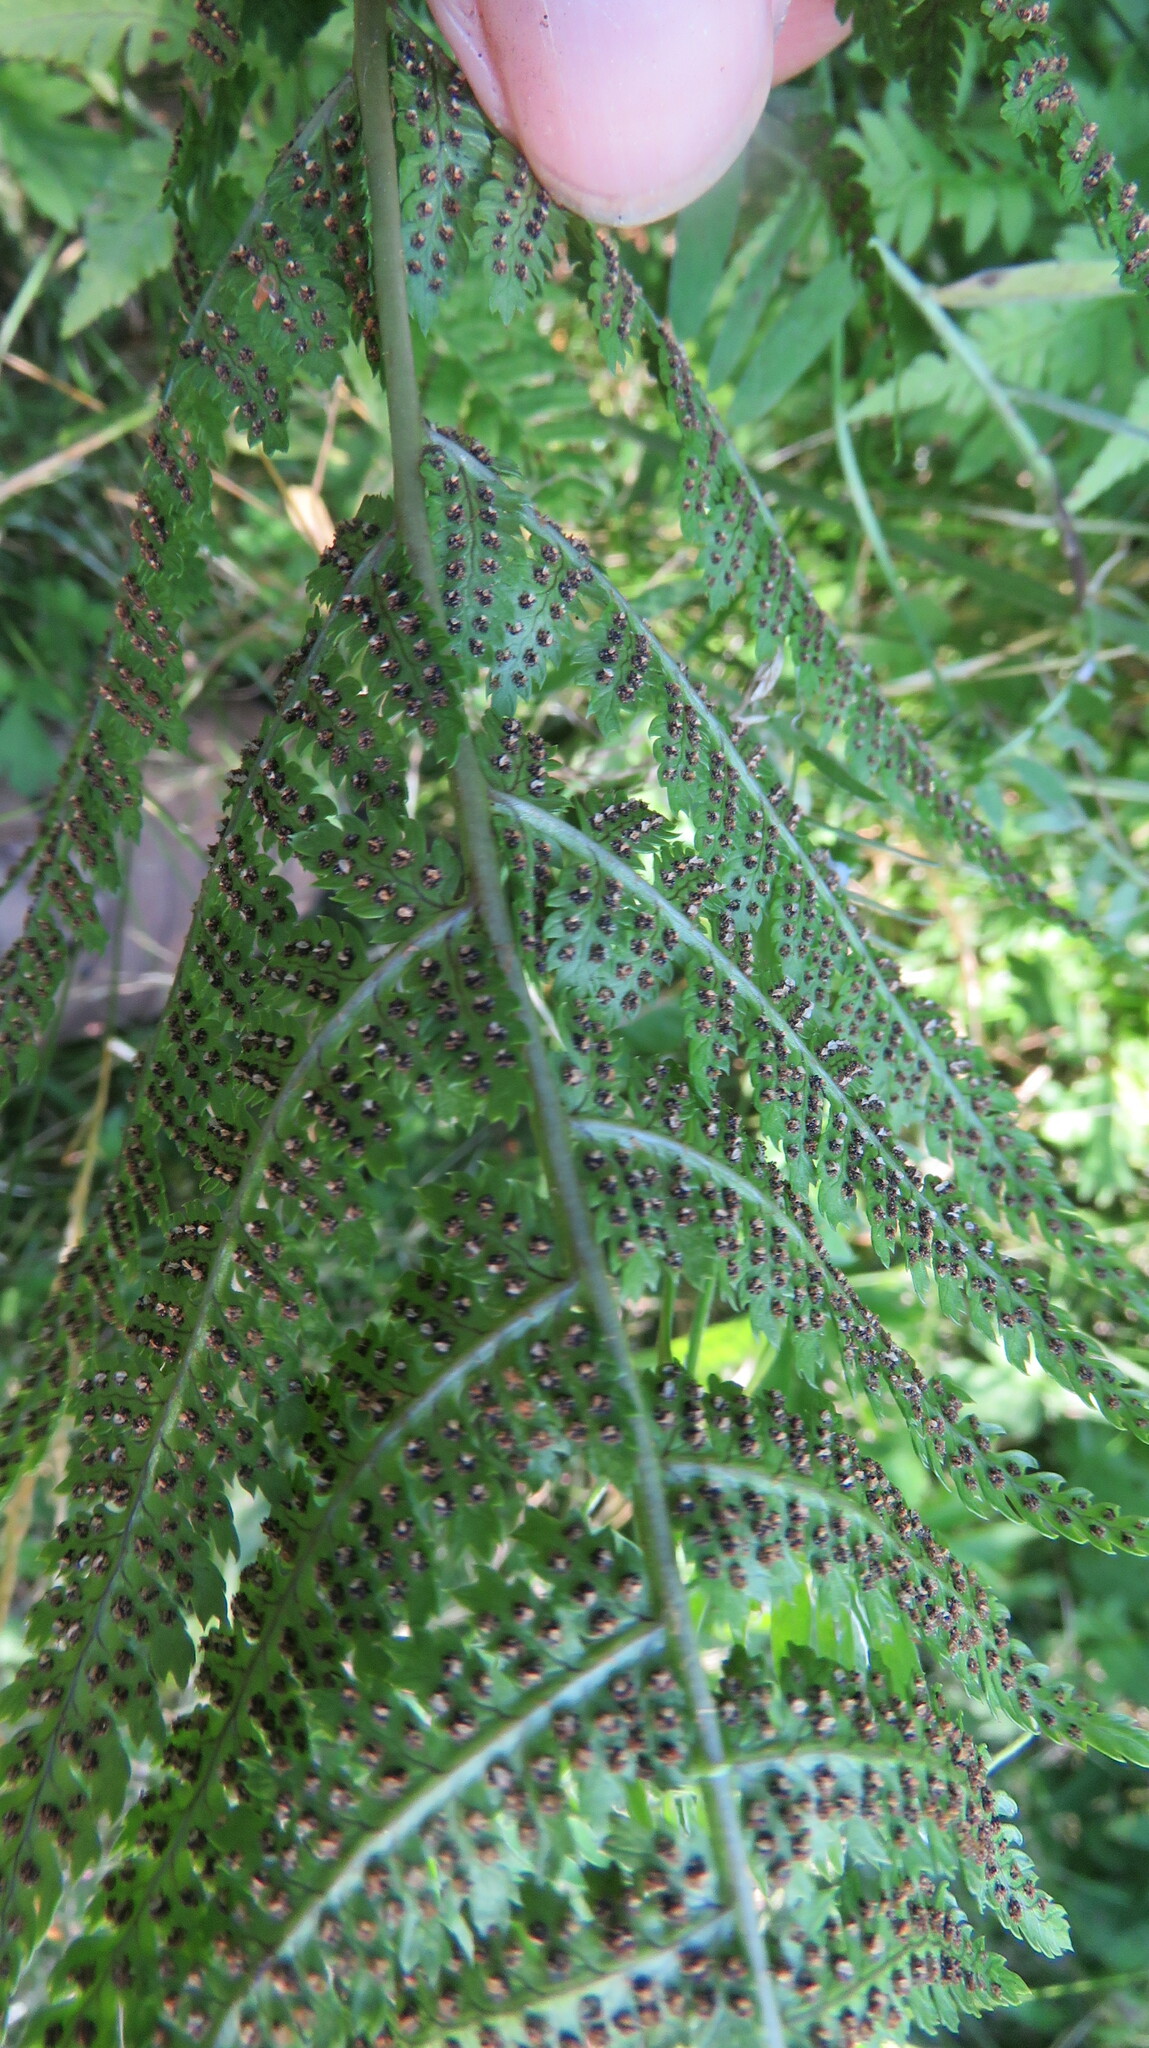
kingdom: Plantae
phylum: Tracheophyta
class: Polypodiopsida
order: Polypodiales
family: Athyriaceae
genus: Athyrium
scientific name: Athyrium angustum
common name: Northern lady fern
